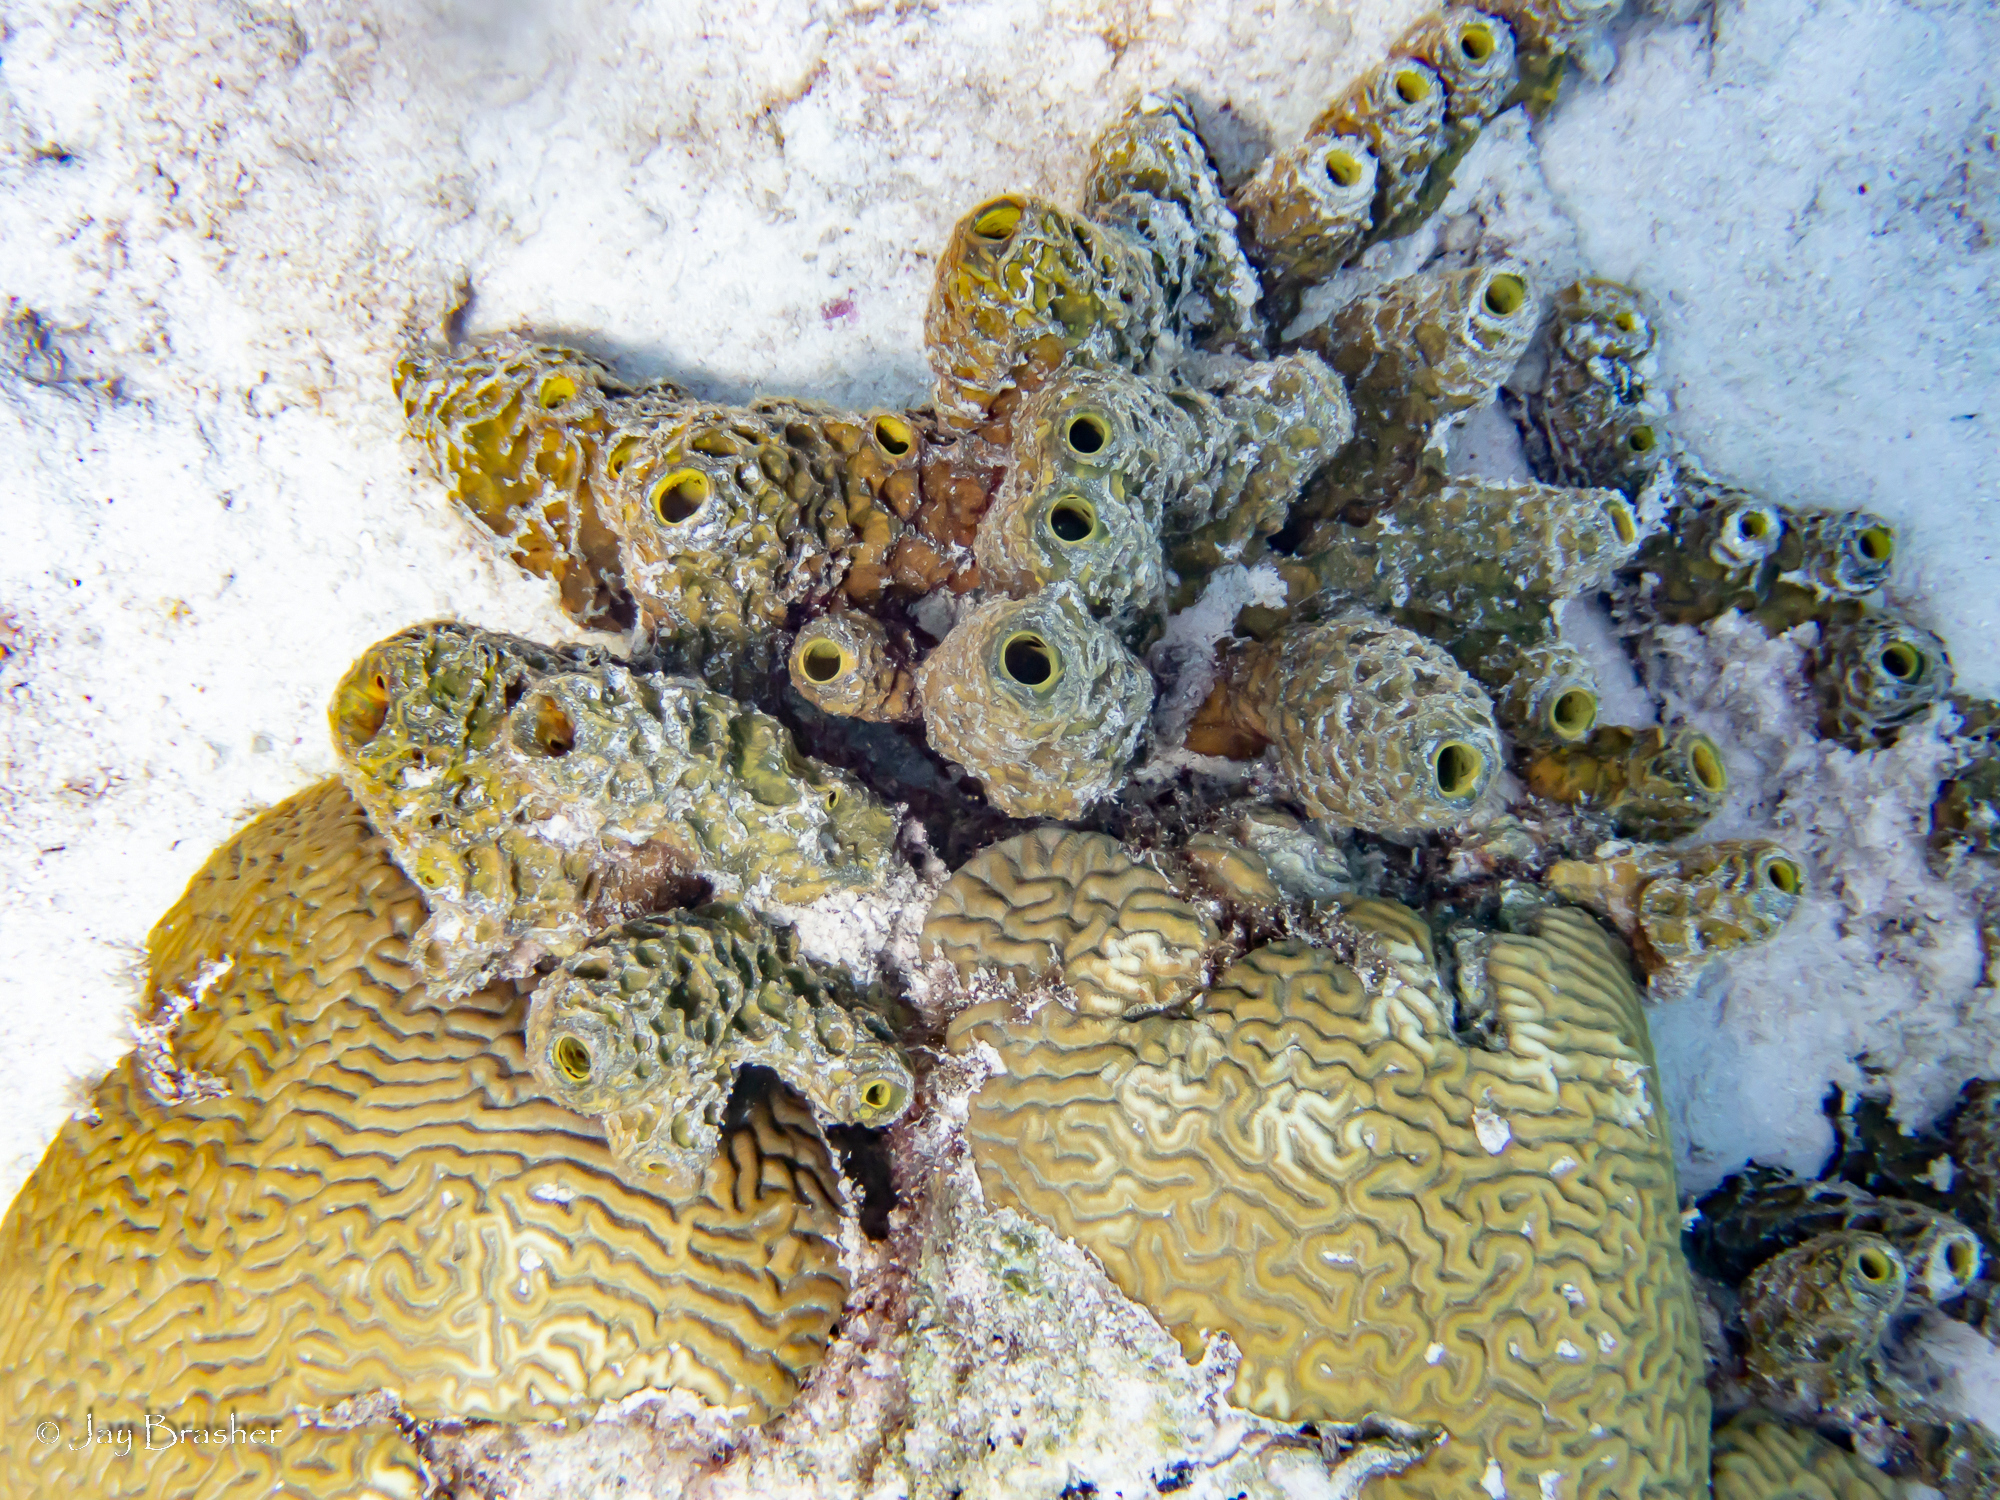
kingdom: Animalia
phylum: Cnidaria
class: Anthozoa
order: Scleractinia
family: Faviidae
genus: Pseudodiploria
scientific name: Pseudodiploria strigosa
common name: Symmetrical brain coral
